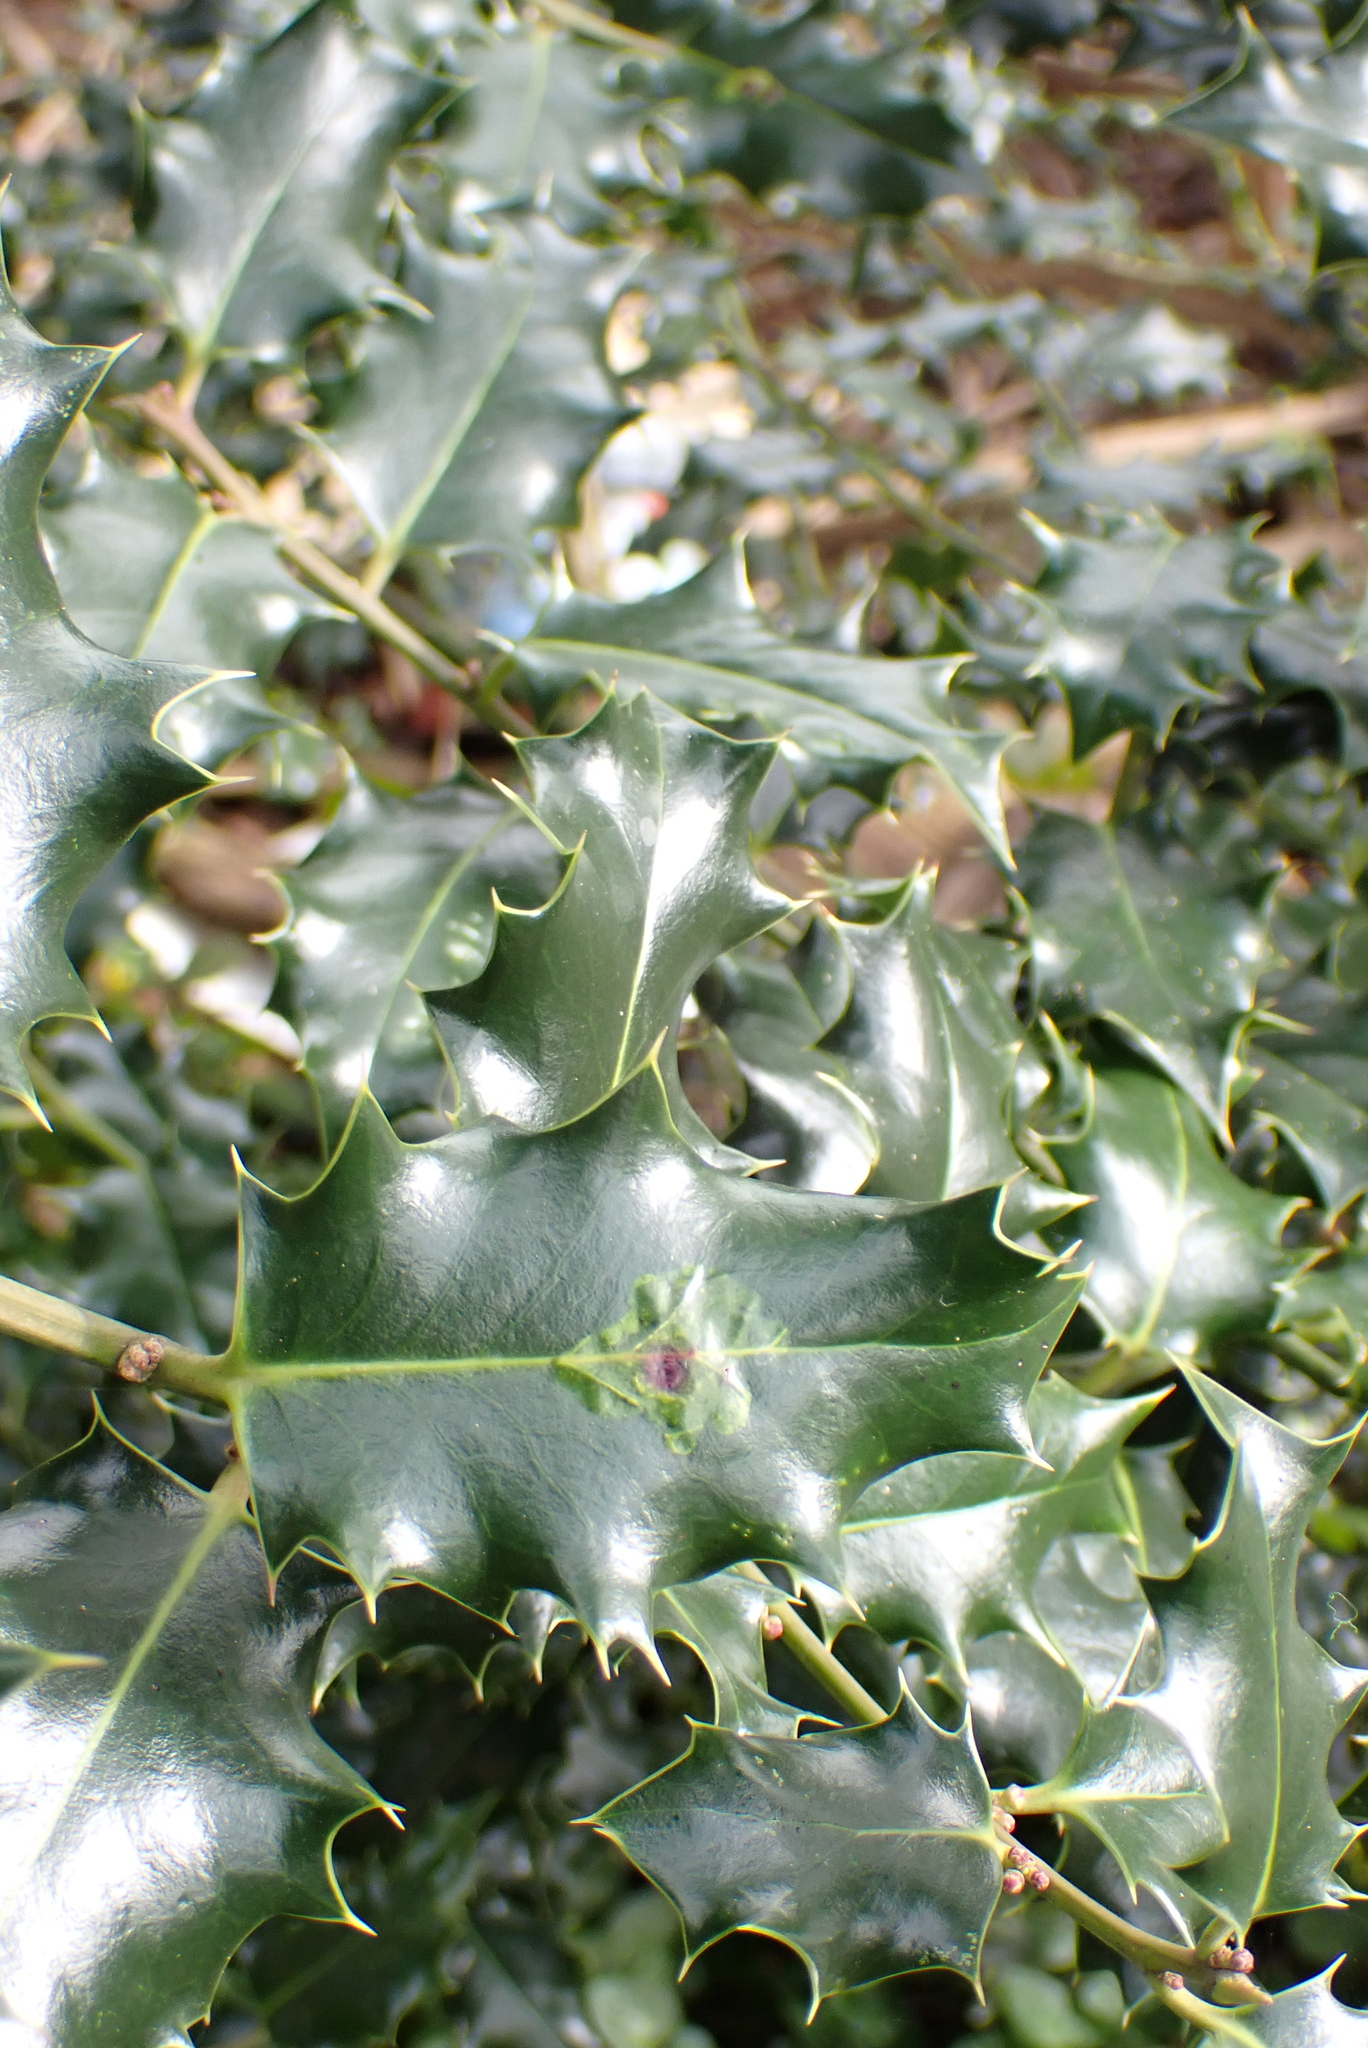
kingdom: Plantae
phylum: Tracheophyta
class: Magnoliopsida
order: Aquifoliales
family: Aquifoliaceae
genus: Ilex
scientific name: Ilex aquifolium
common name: English holly
